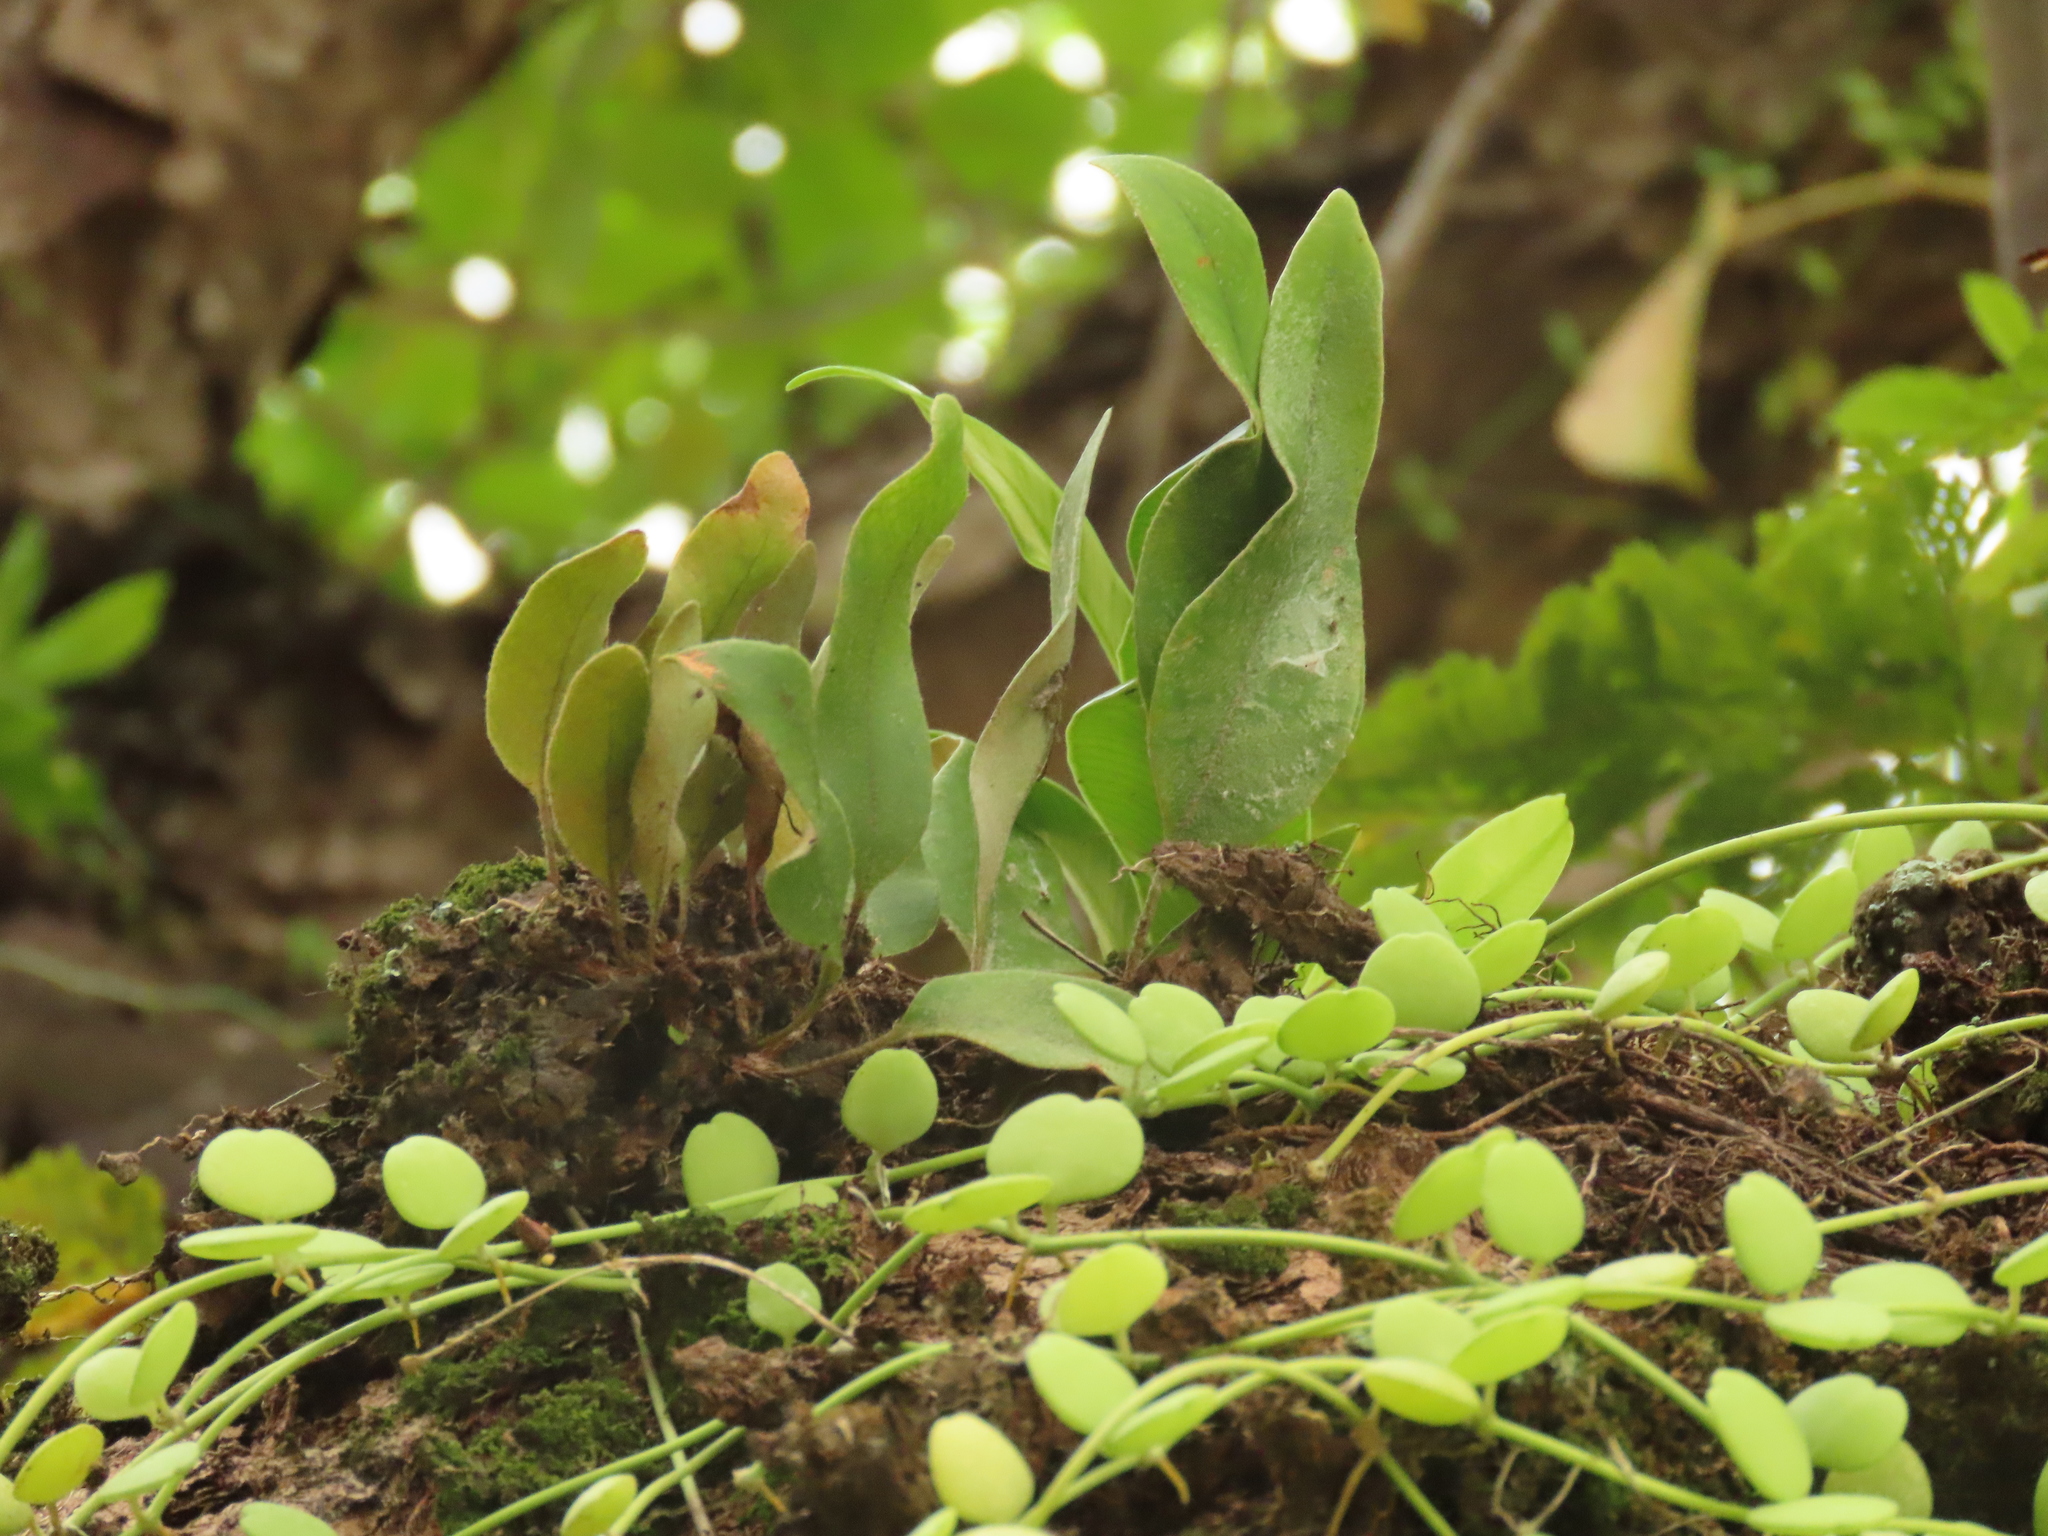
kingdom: Plantae
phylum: Tracheophyta
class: Polypodiopsida
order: Polypodiales
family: Polypodiaceae
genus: Pyrrosia
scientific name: Pyrrosia lingua
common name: Felt fern
